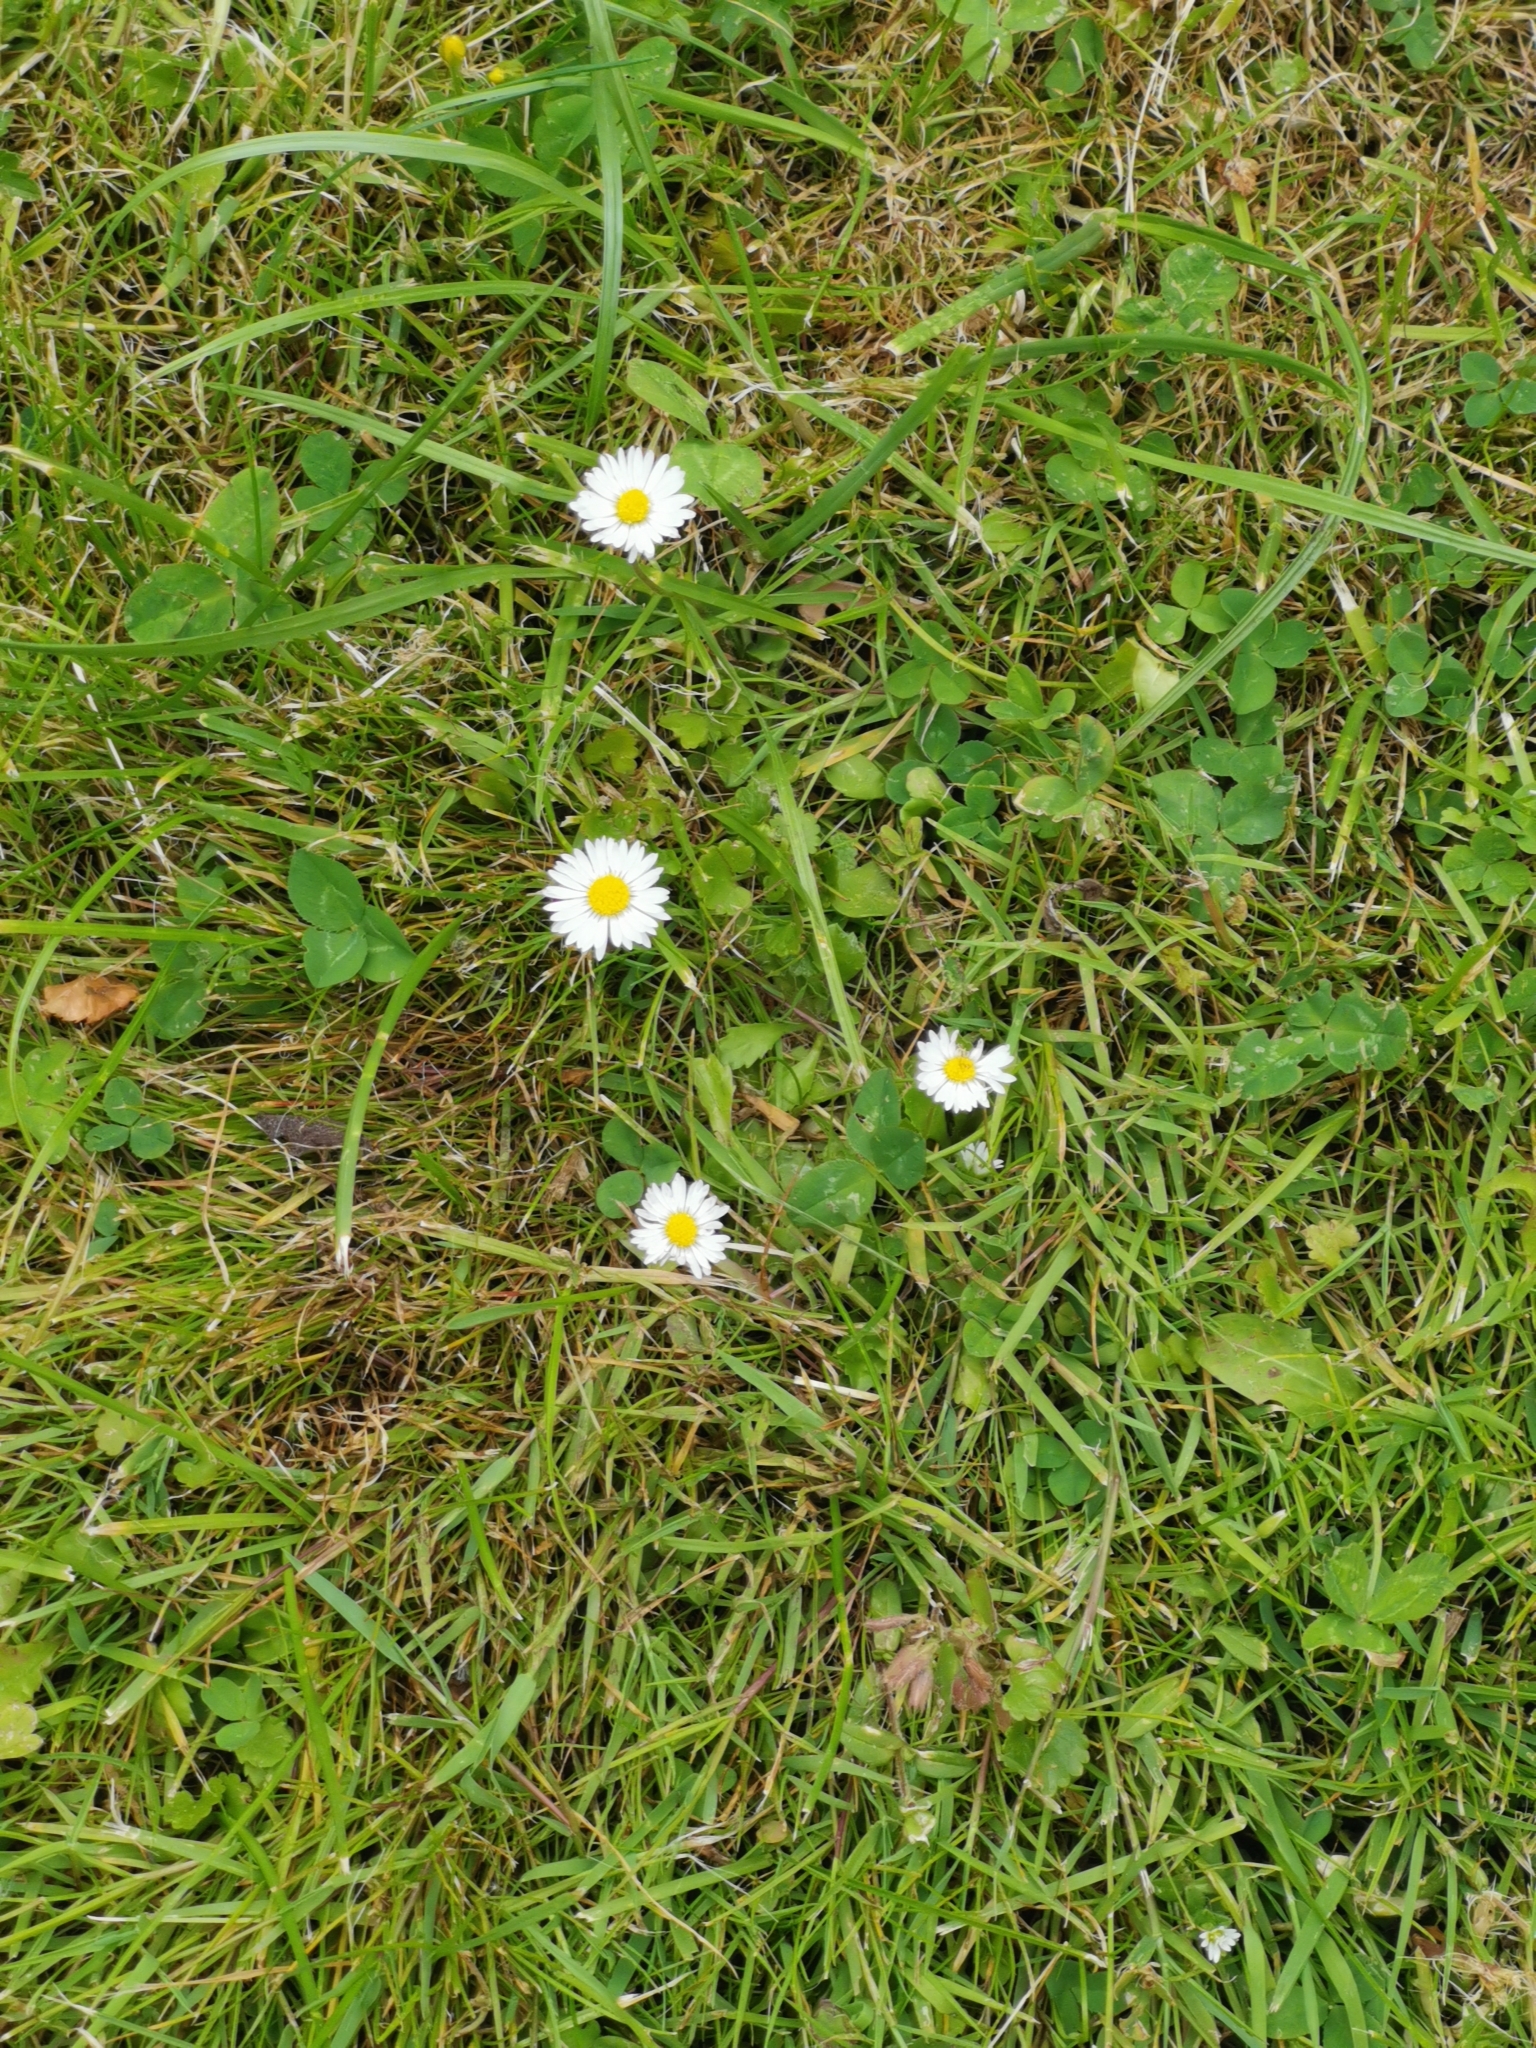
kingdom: Plantae
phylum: Tracheophyta
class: Magnoliopsida
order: Asterales
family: Asteraceae
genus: Bellis
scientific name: Bellis perennis
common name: Lawndaisy
